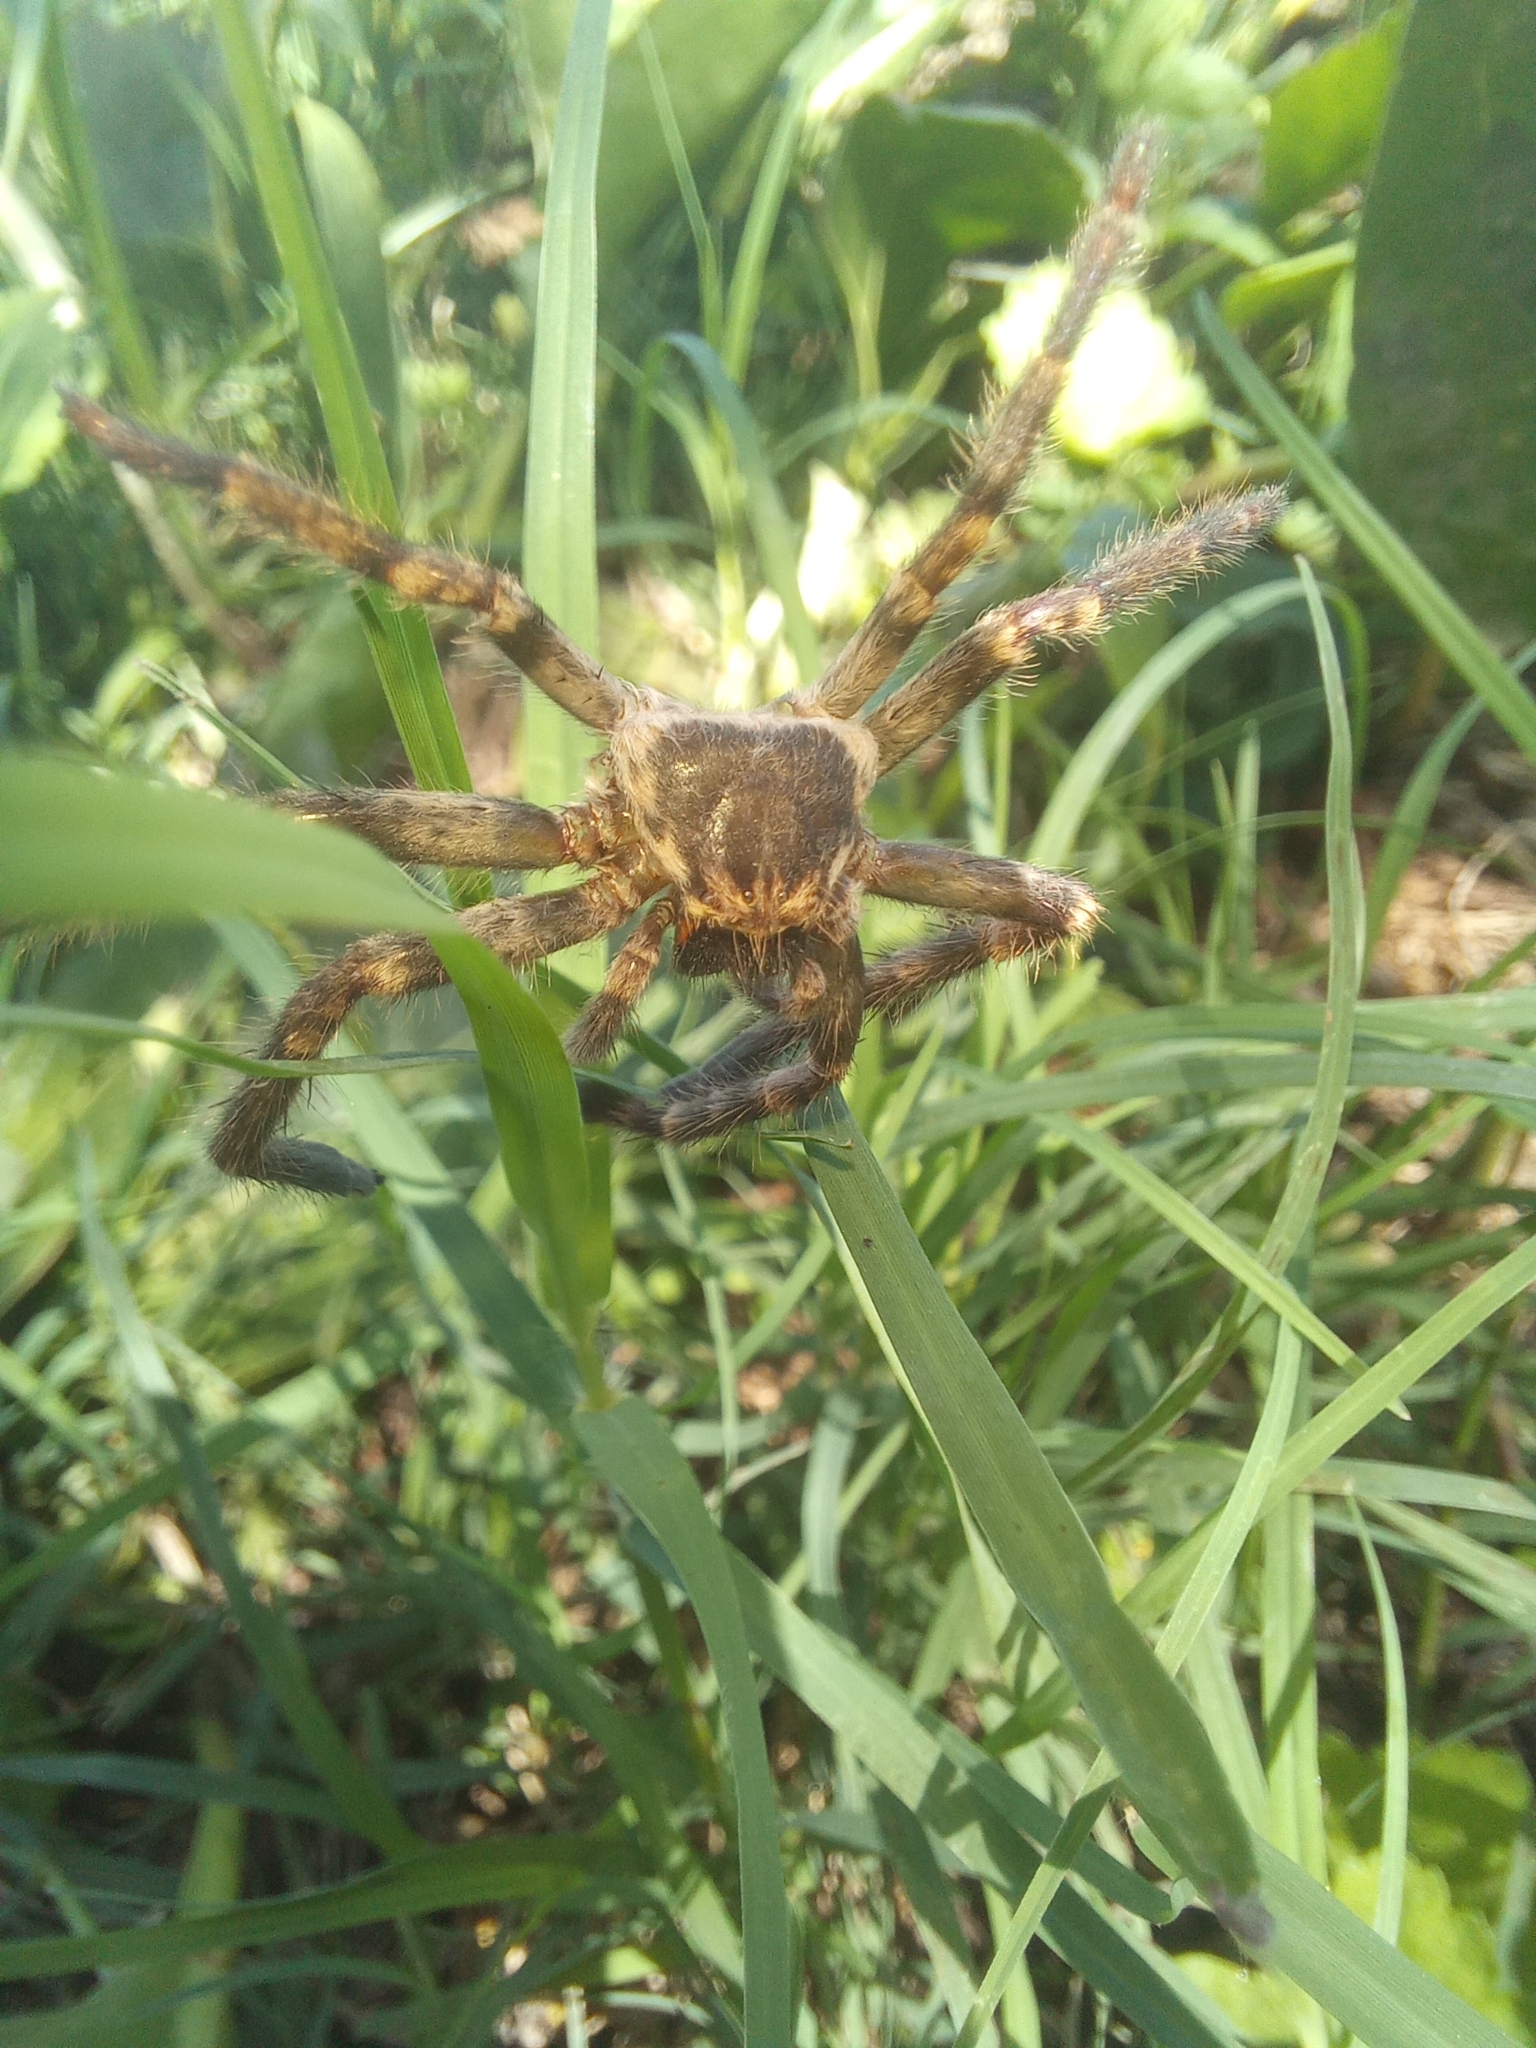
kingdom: Animalia
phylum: Arthropoda
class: Arachnida
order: Araneae
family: Sparassidae
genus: Polybetes
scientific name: Polybetes pythagoricus
